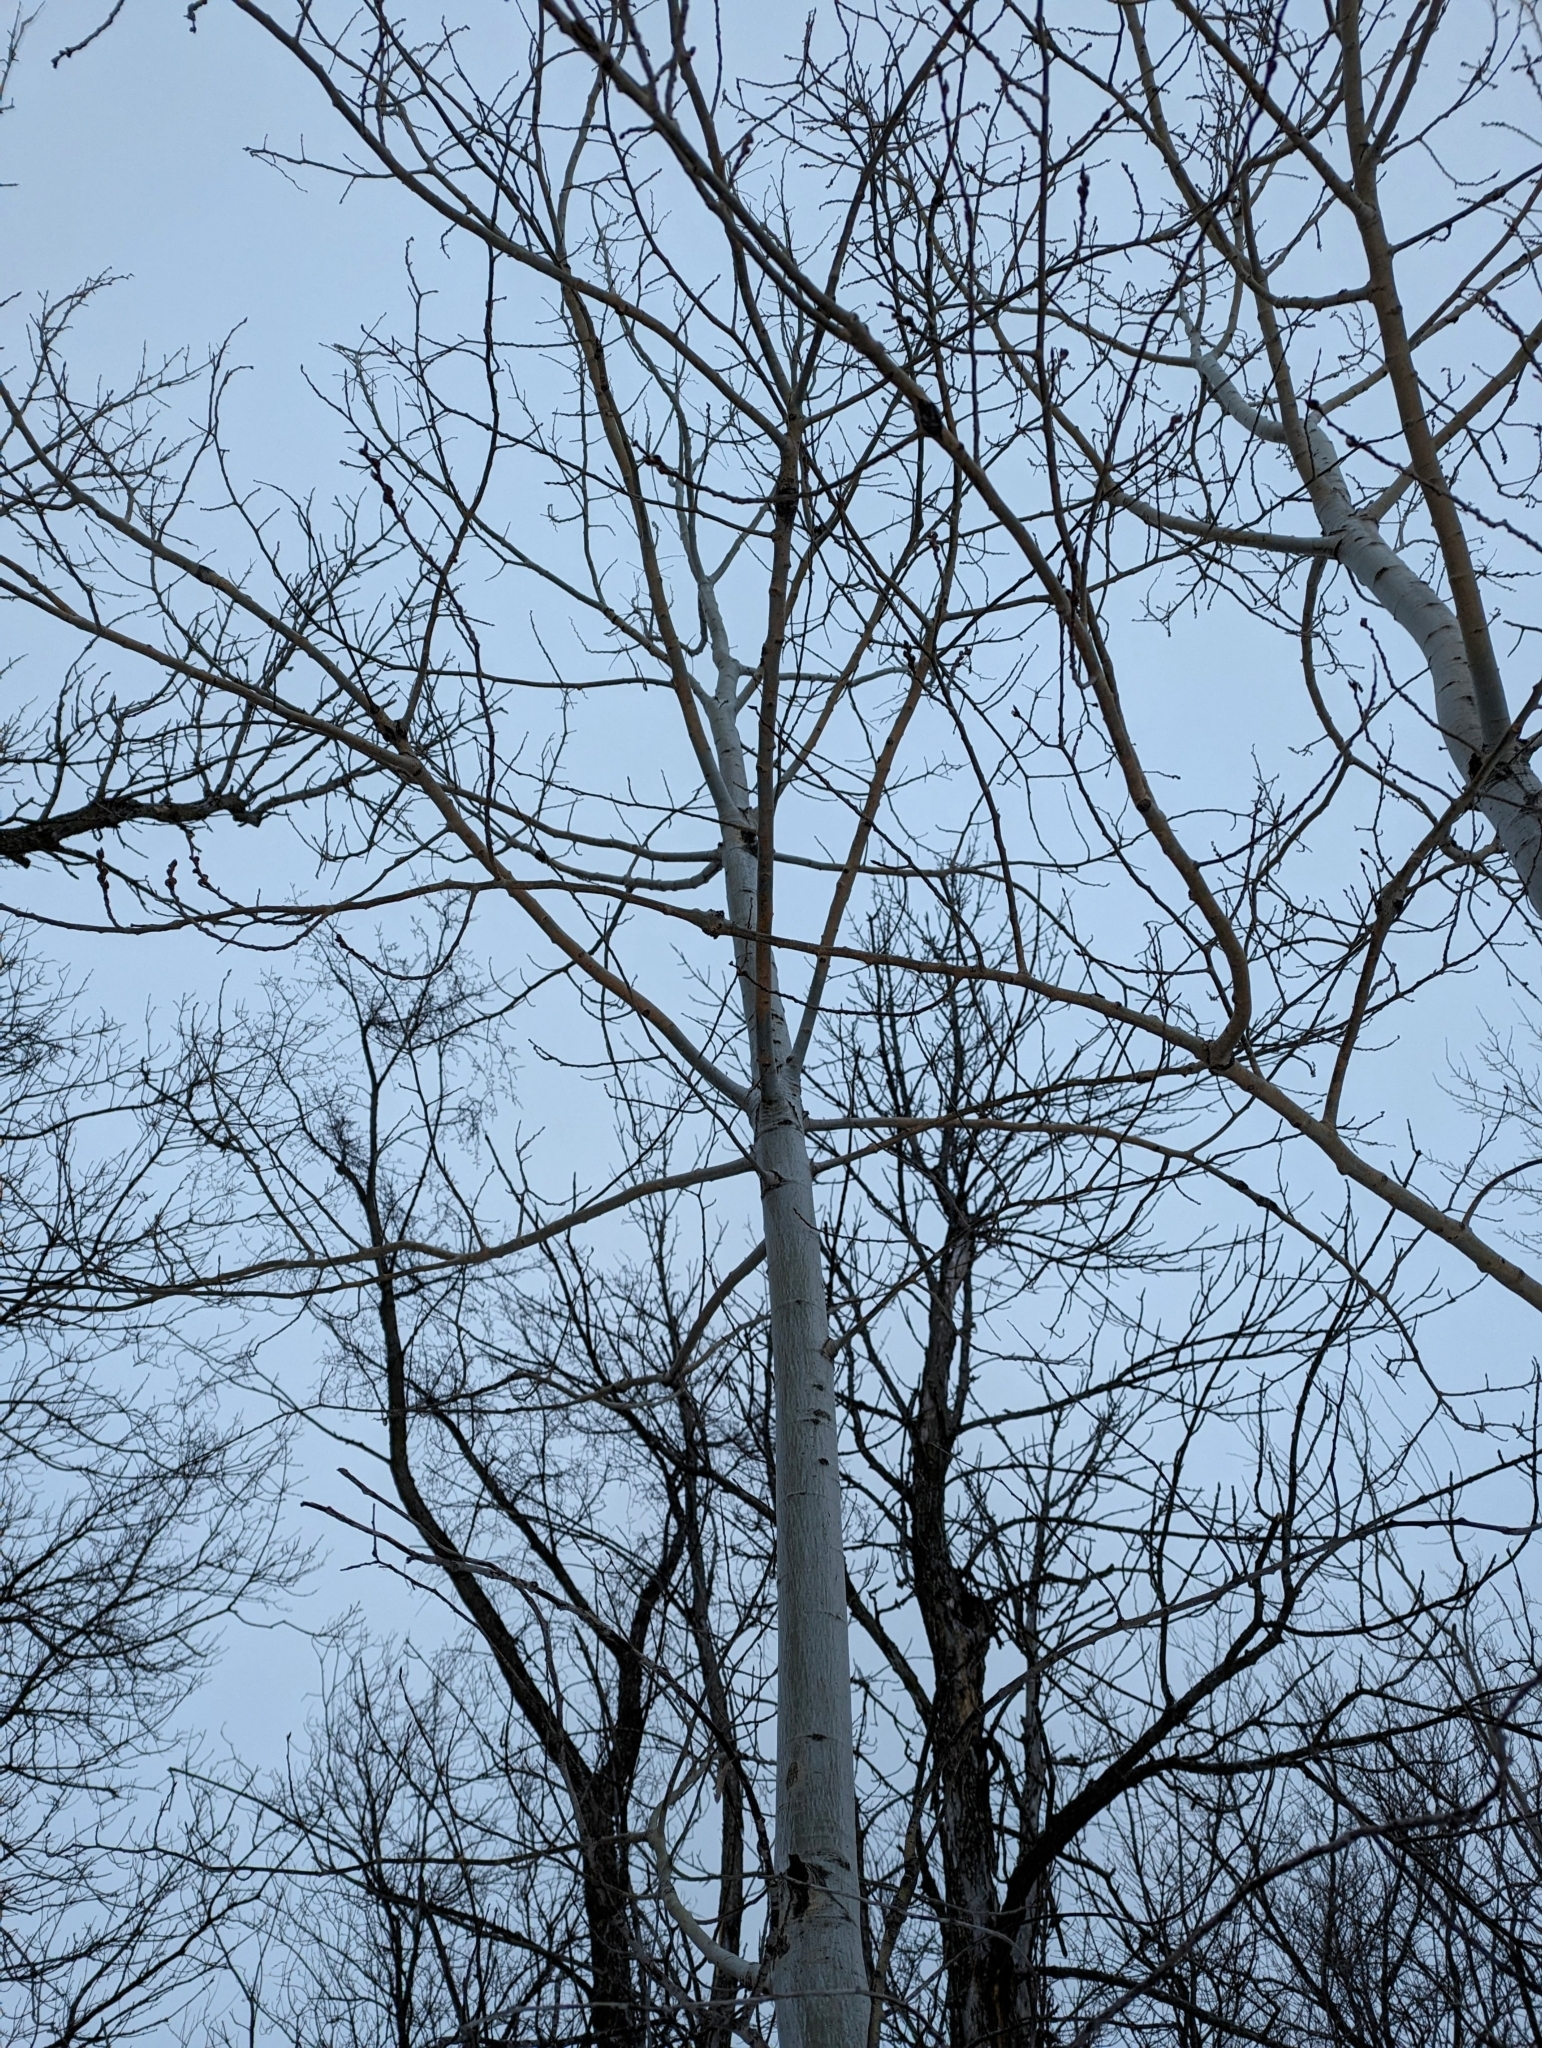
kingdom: Plantae
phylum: Tracheophyta
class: Magnoliopsida
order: Malpighiales
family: Salicaceae
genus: Populus
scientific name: Populus tremuloides
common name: Quaking aspen
